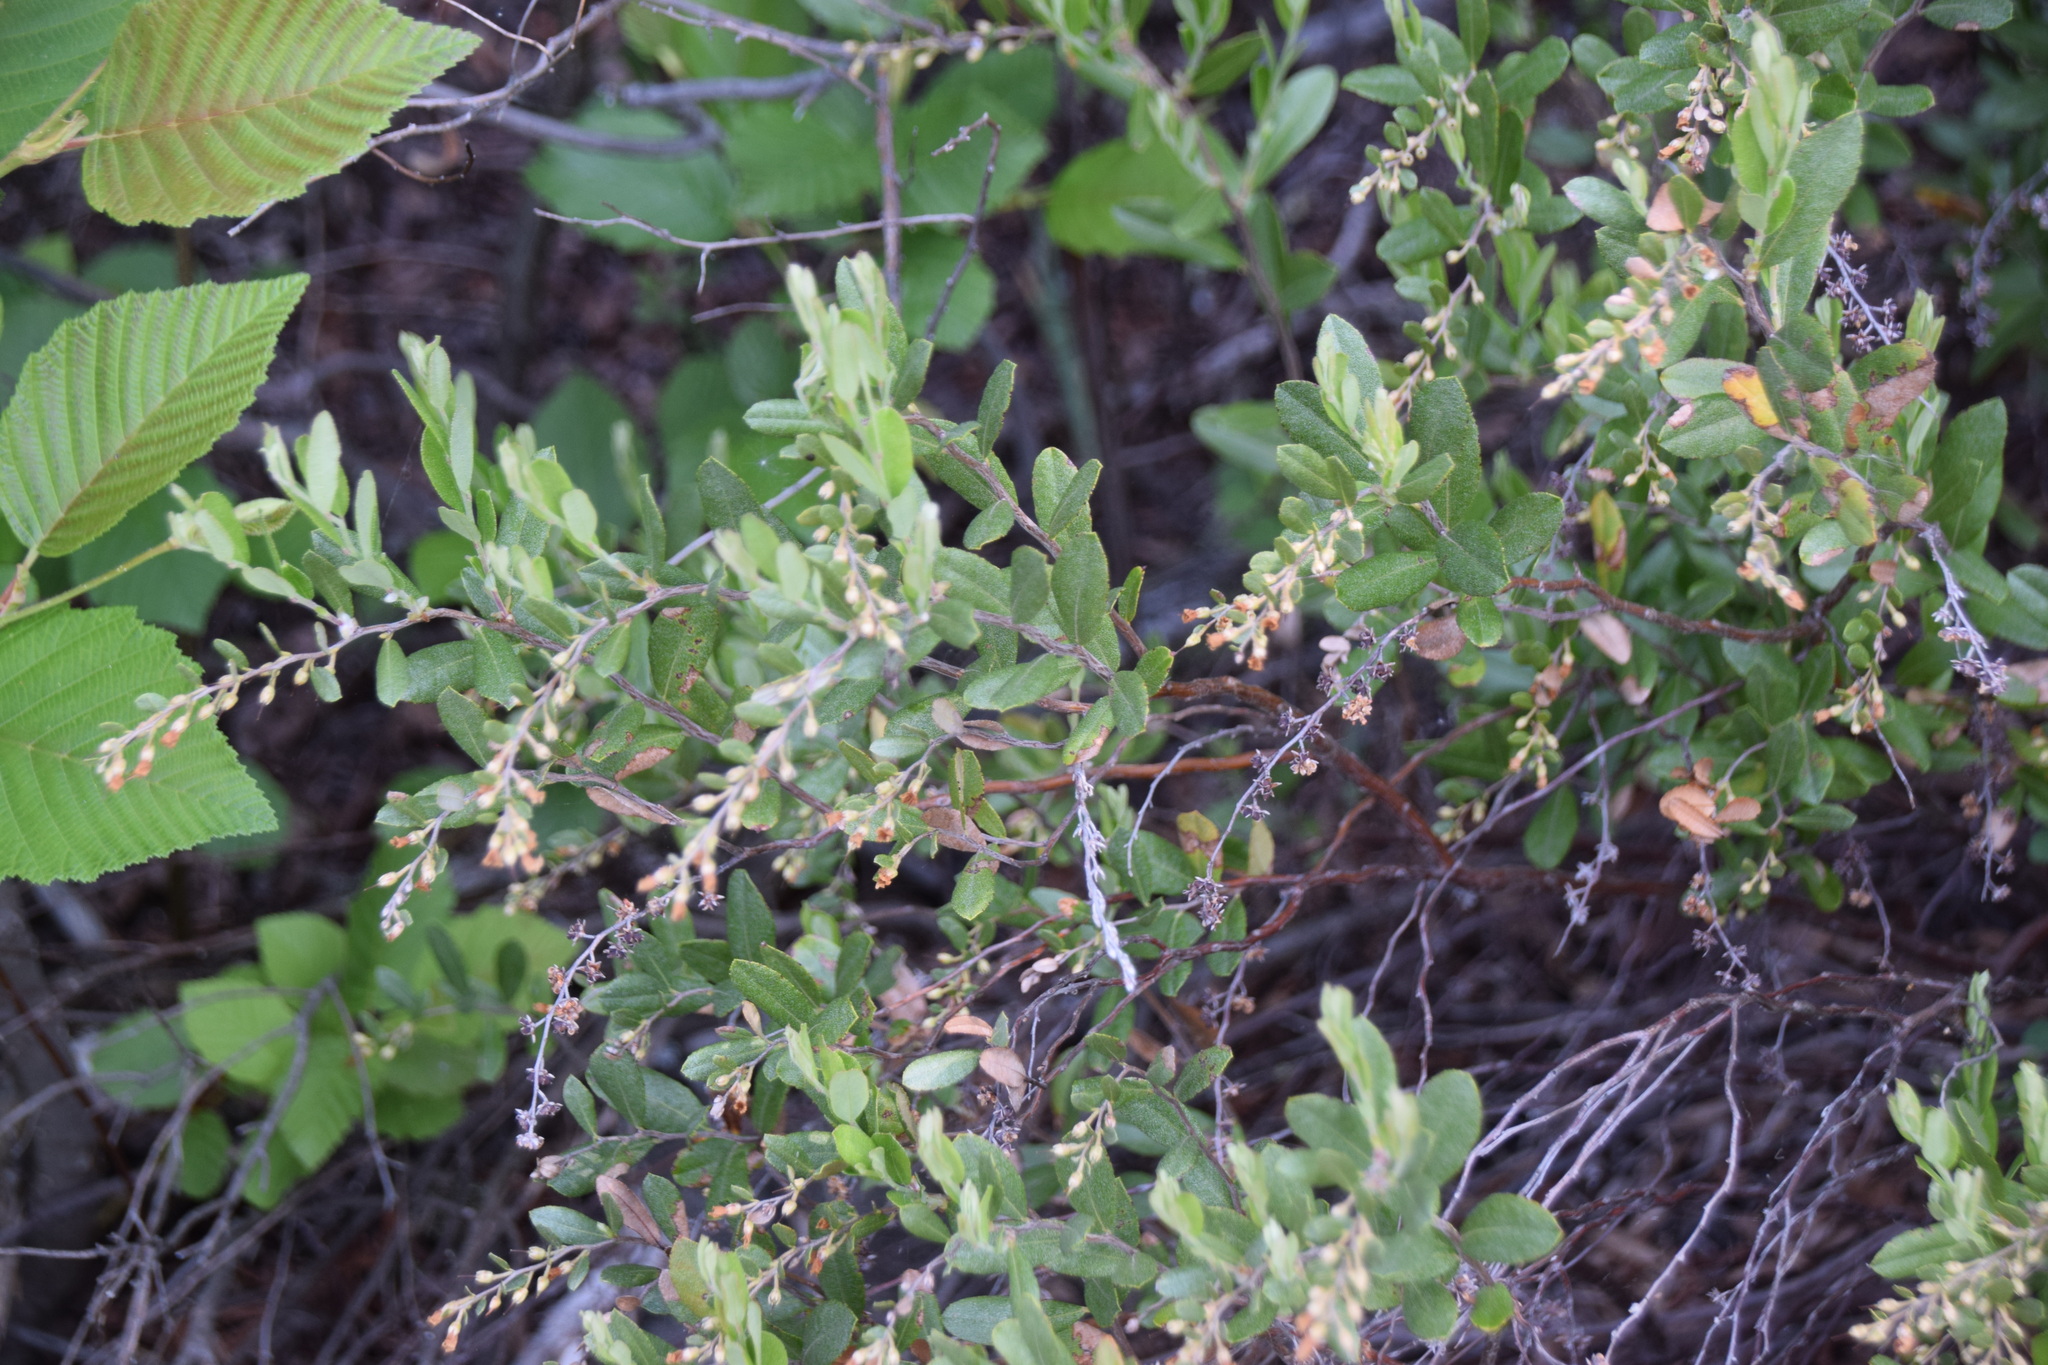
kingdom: Plantae
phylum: Tracheophyta
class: Magnoliopsida
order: Ericales
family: Ericaceae
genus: Chamaedaphne
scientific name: Chamaedaphne calyculata
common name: Leatherleaf
